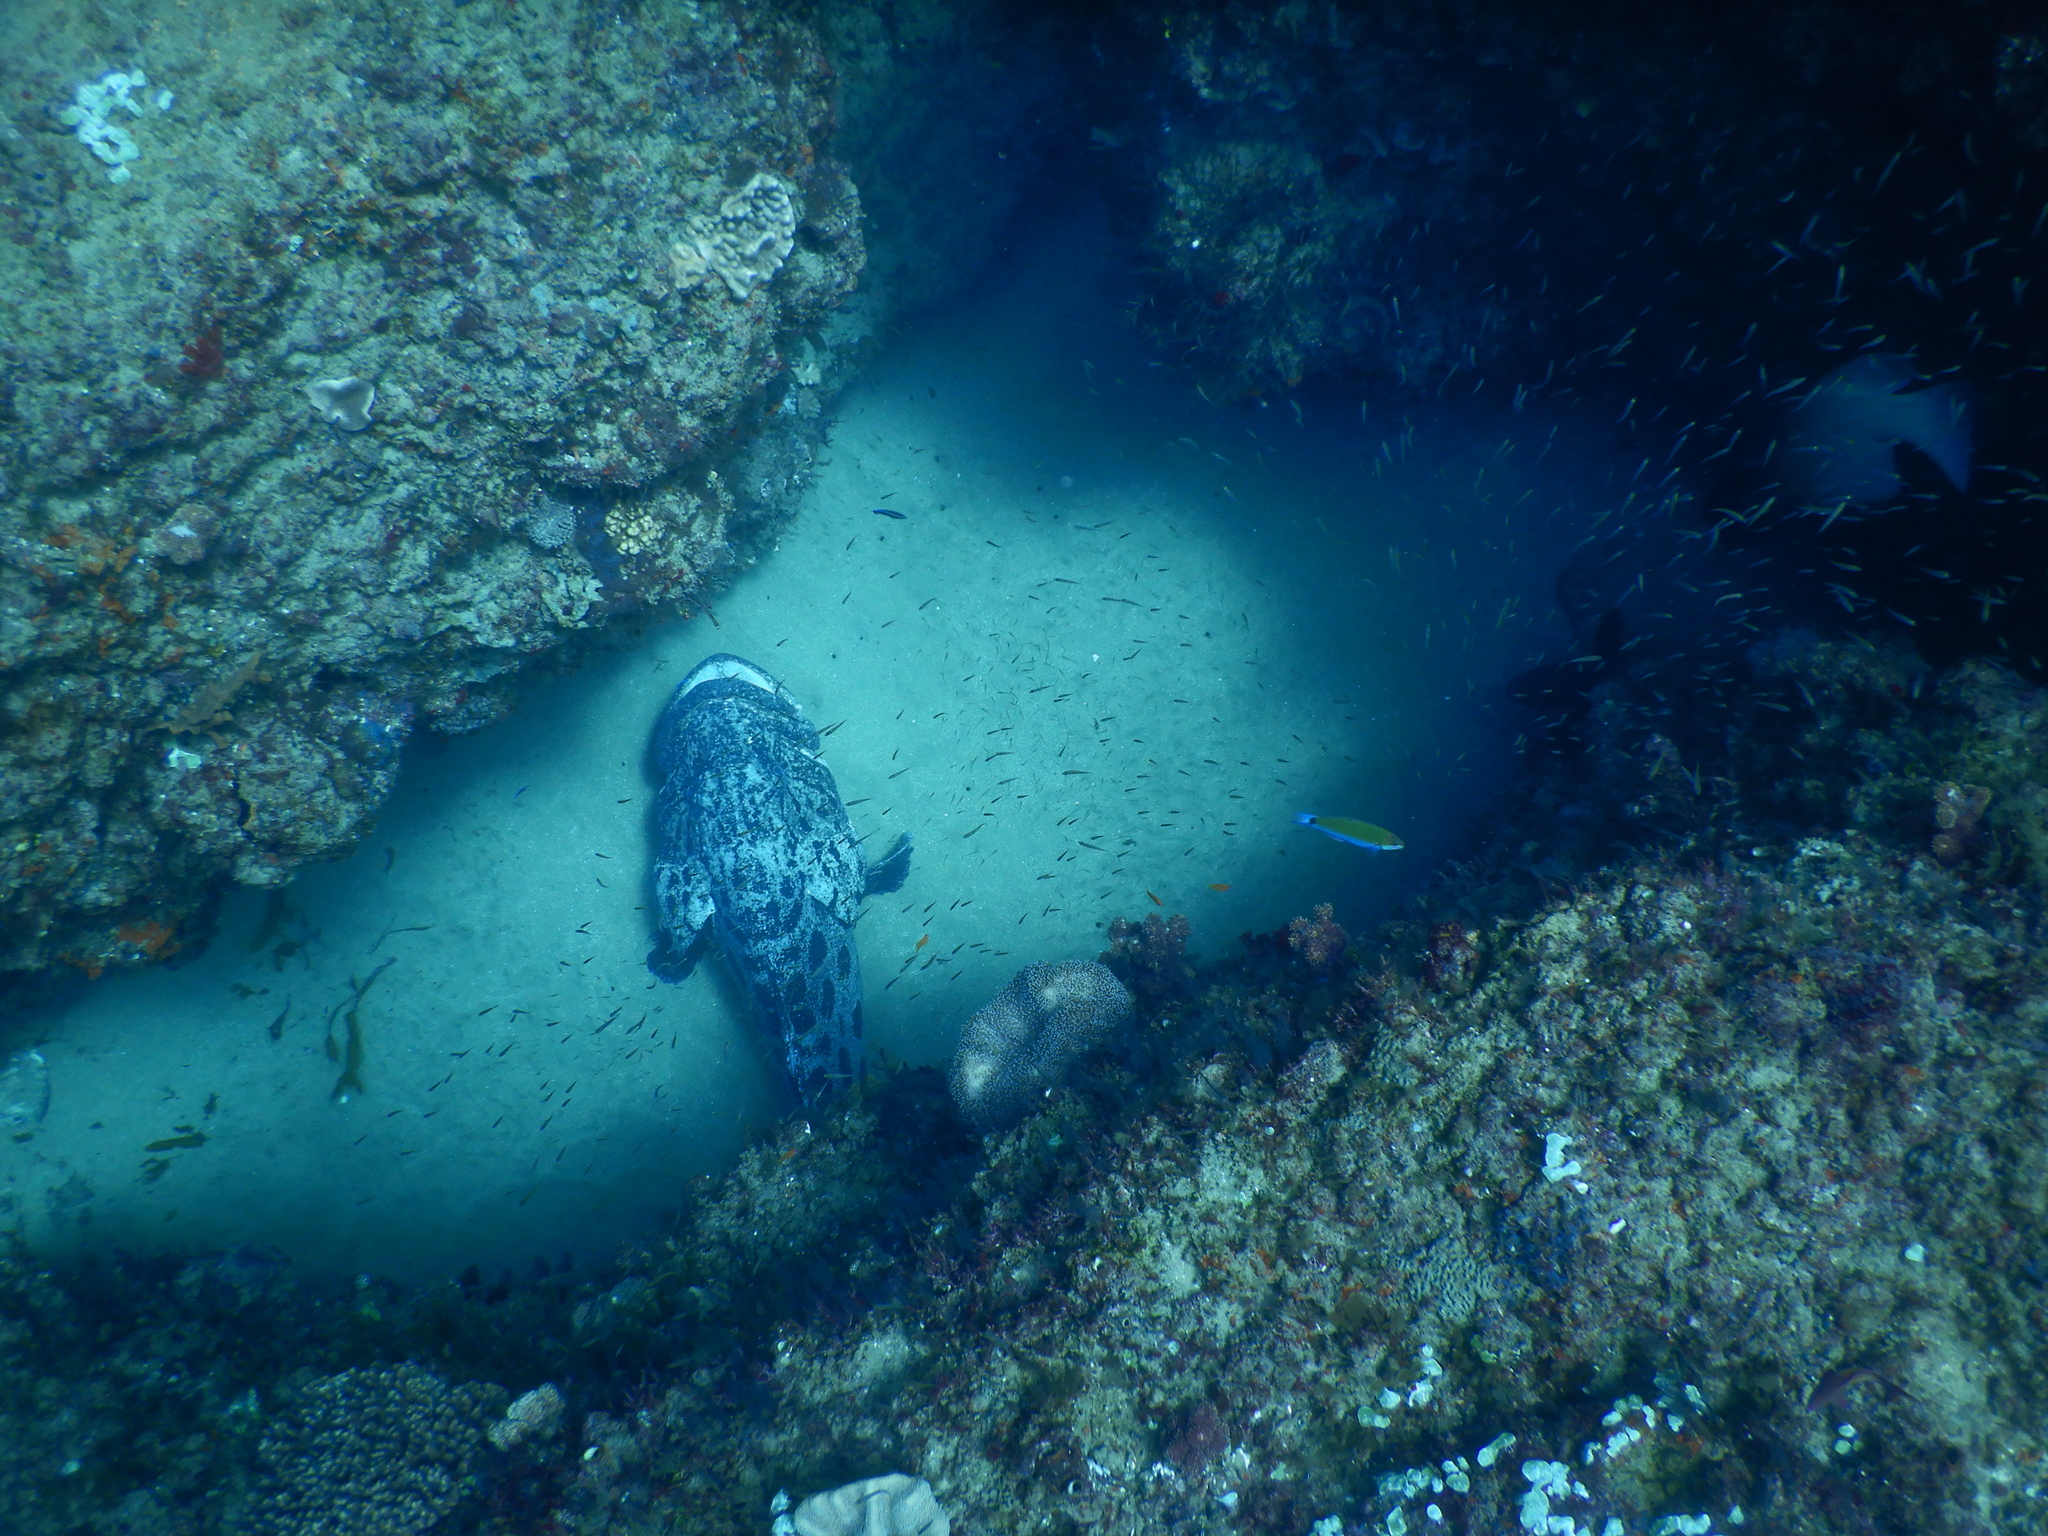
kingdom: Animalia
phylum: Chordata
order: Perciformes
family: Serranidae
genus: Epinephelus
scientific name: Epinephelus tukula
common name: Potato cod
